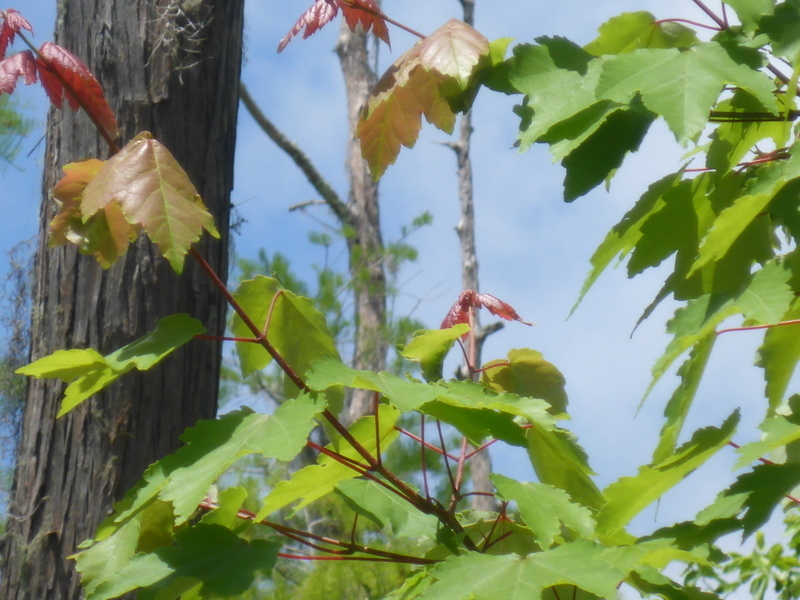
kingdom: Plantae
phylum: Tracheophyta
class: Magnoliopsida
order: Sapindales
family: Sapindaceae
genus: Acer
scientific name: Acer rubrum
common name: Red maple
